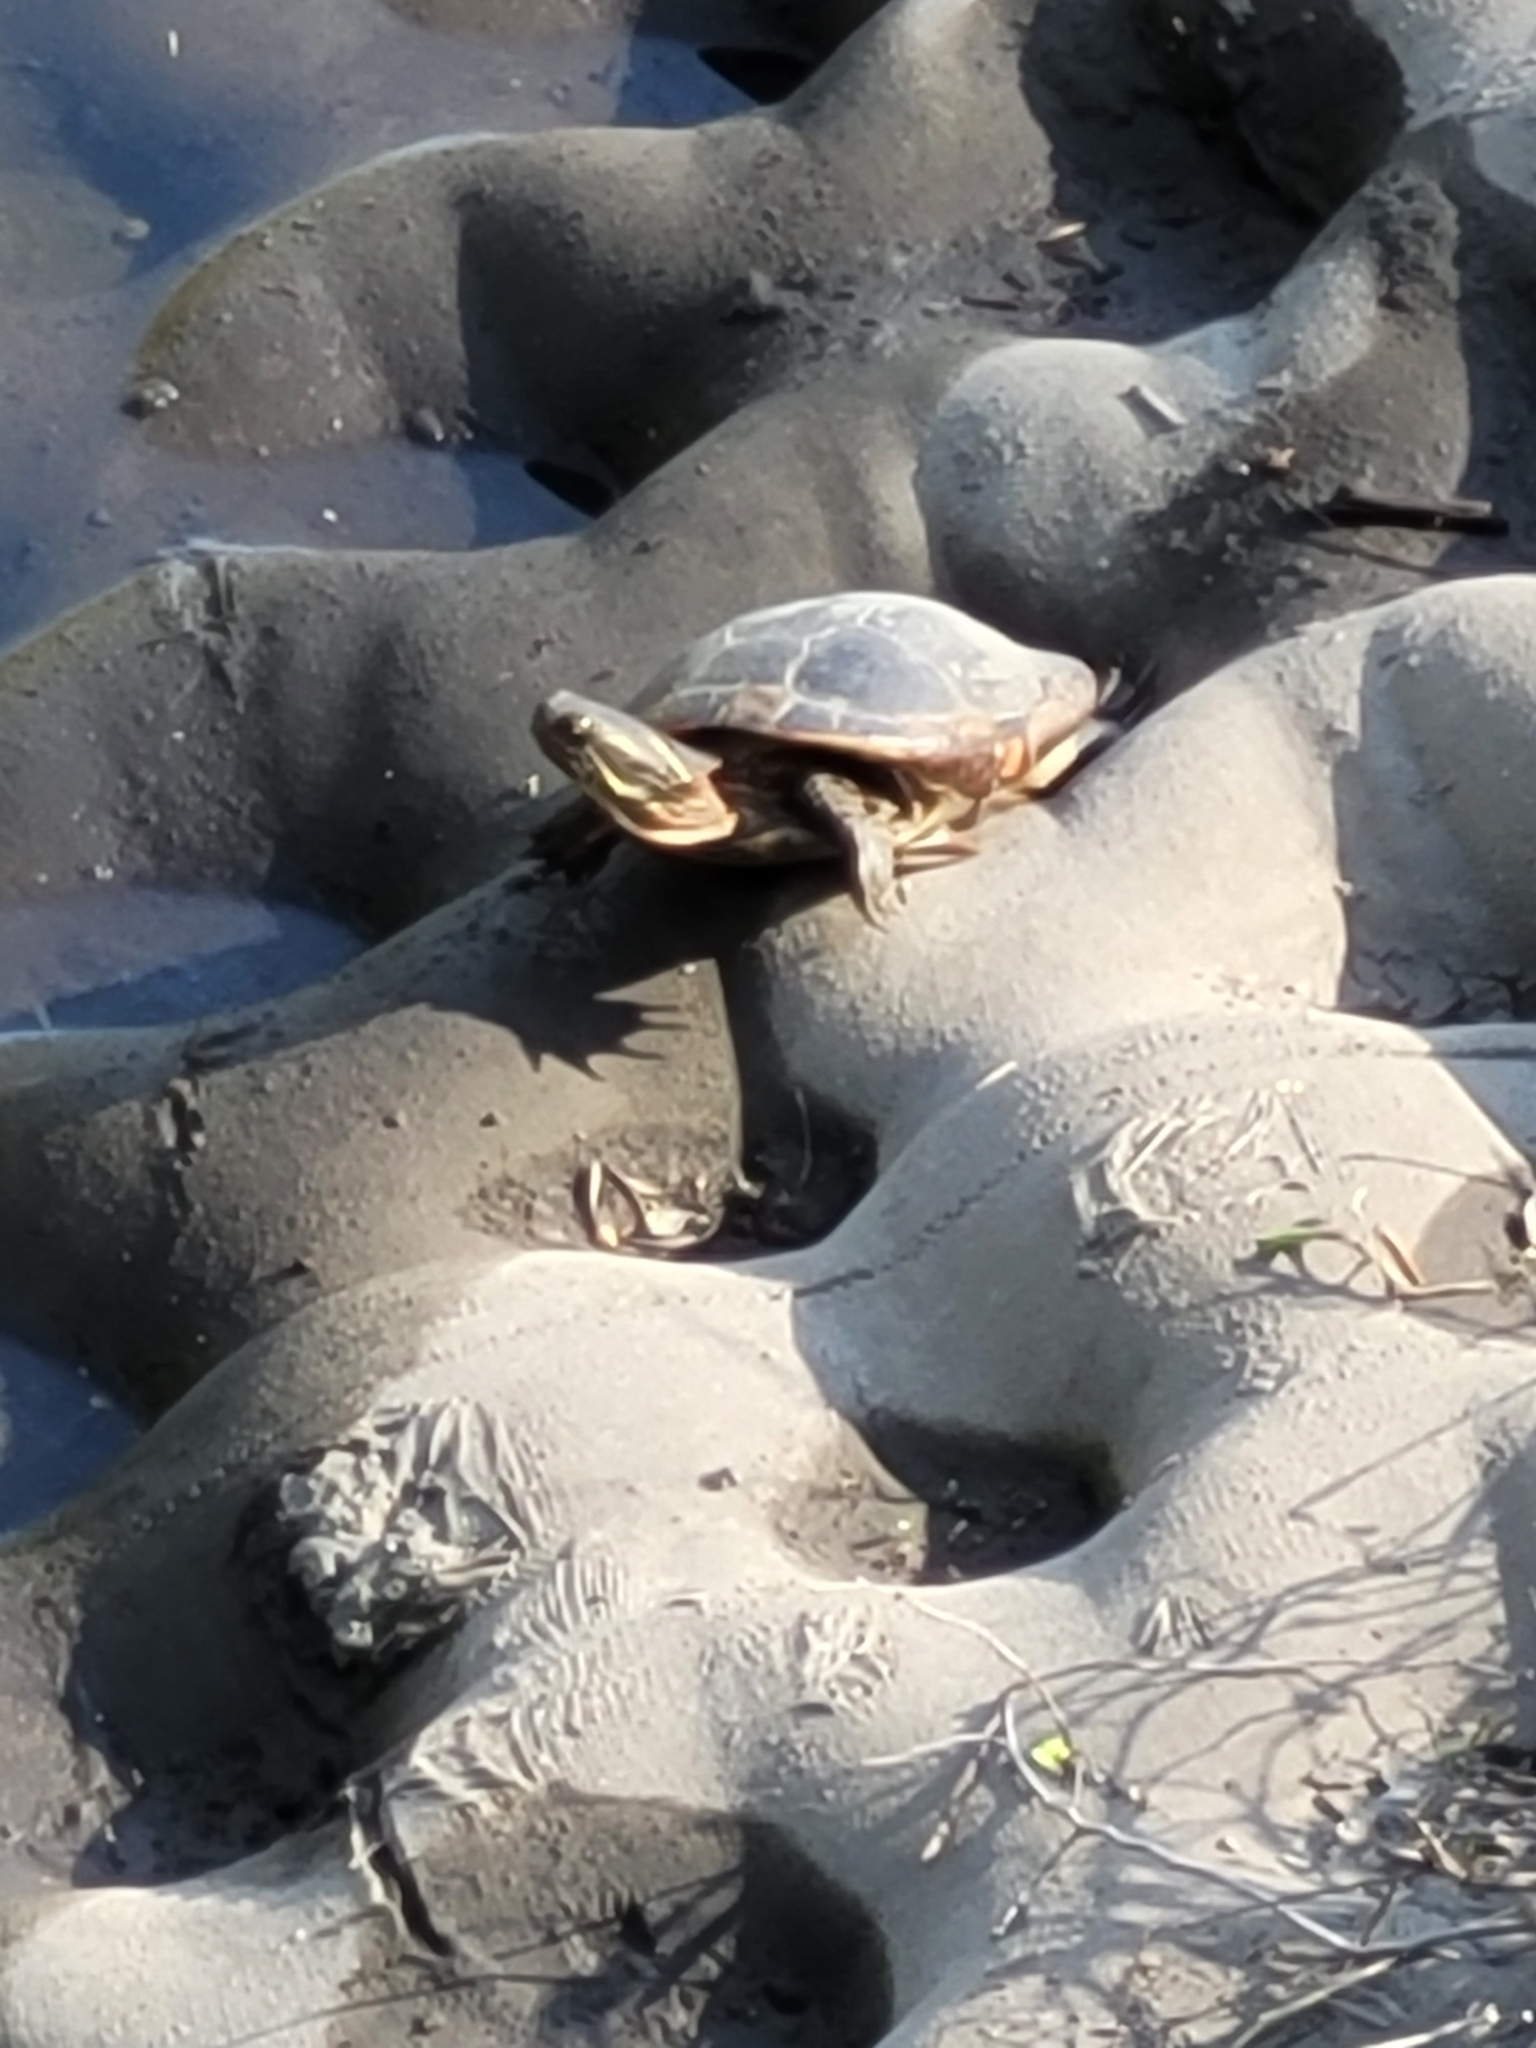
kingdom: Animalia
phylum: Chordata
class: Testudines
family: Emydidae
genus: Chrysemys
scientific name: Chrysemys picta
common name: Painted turtle
